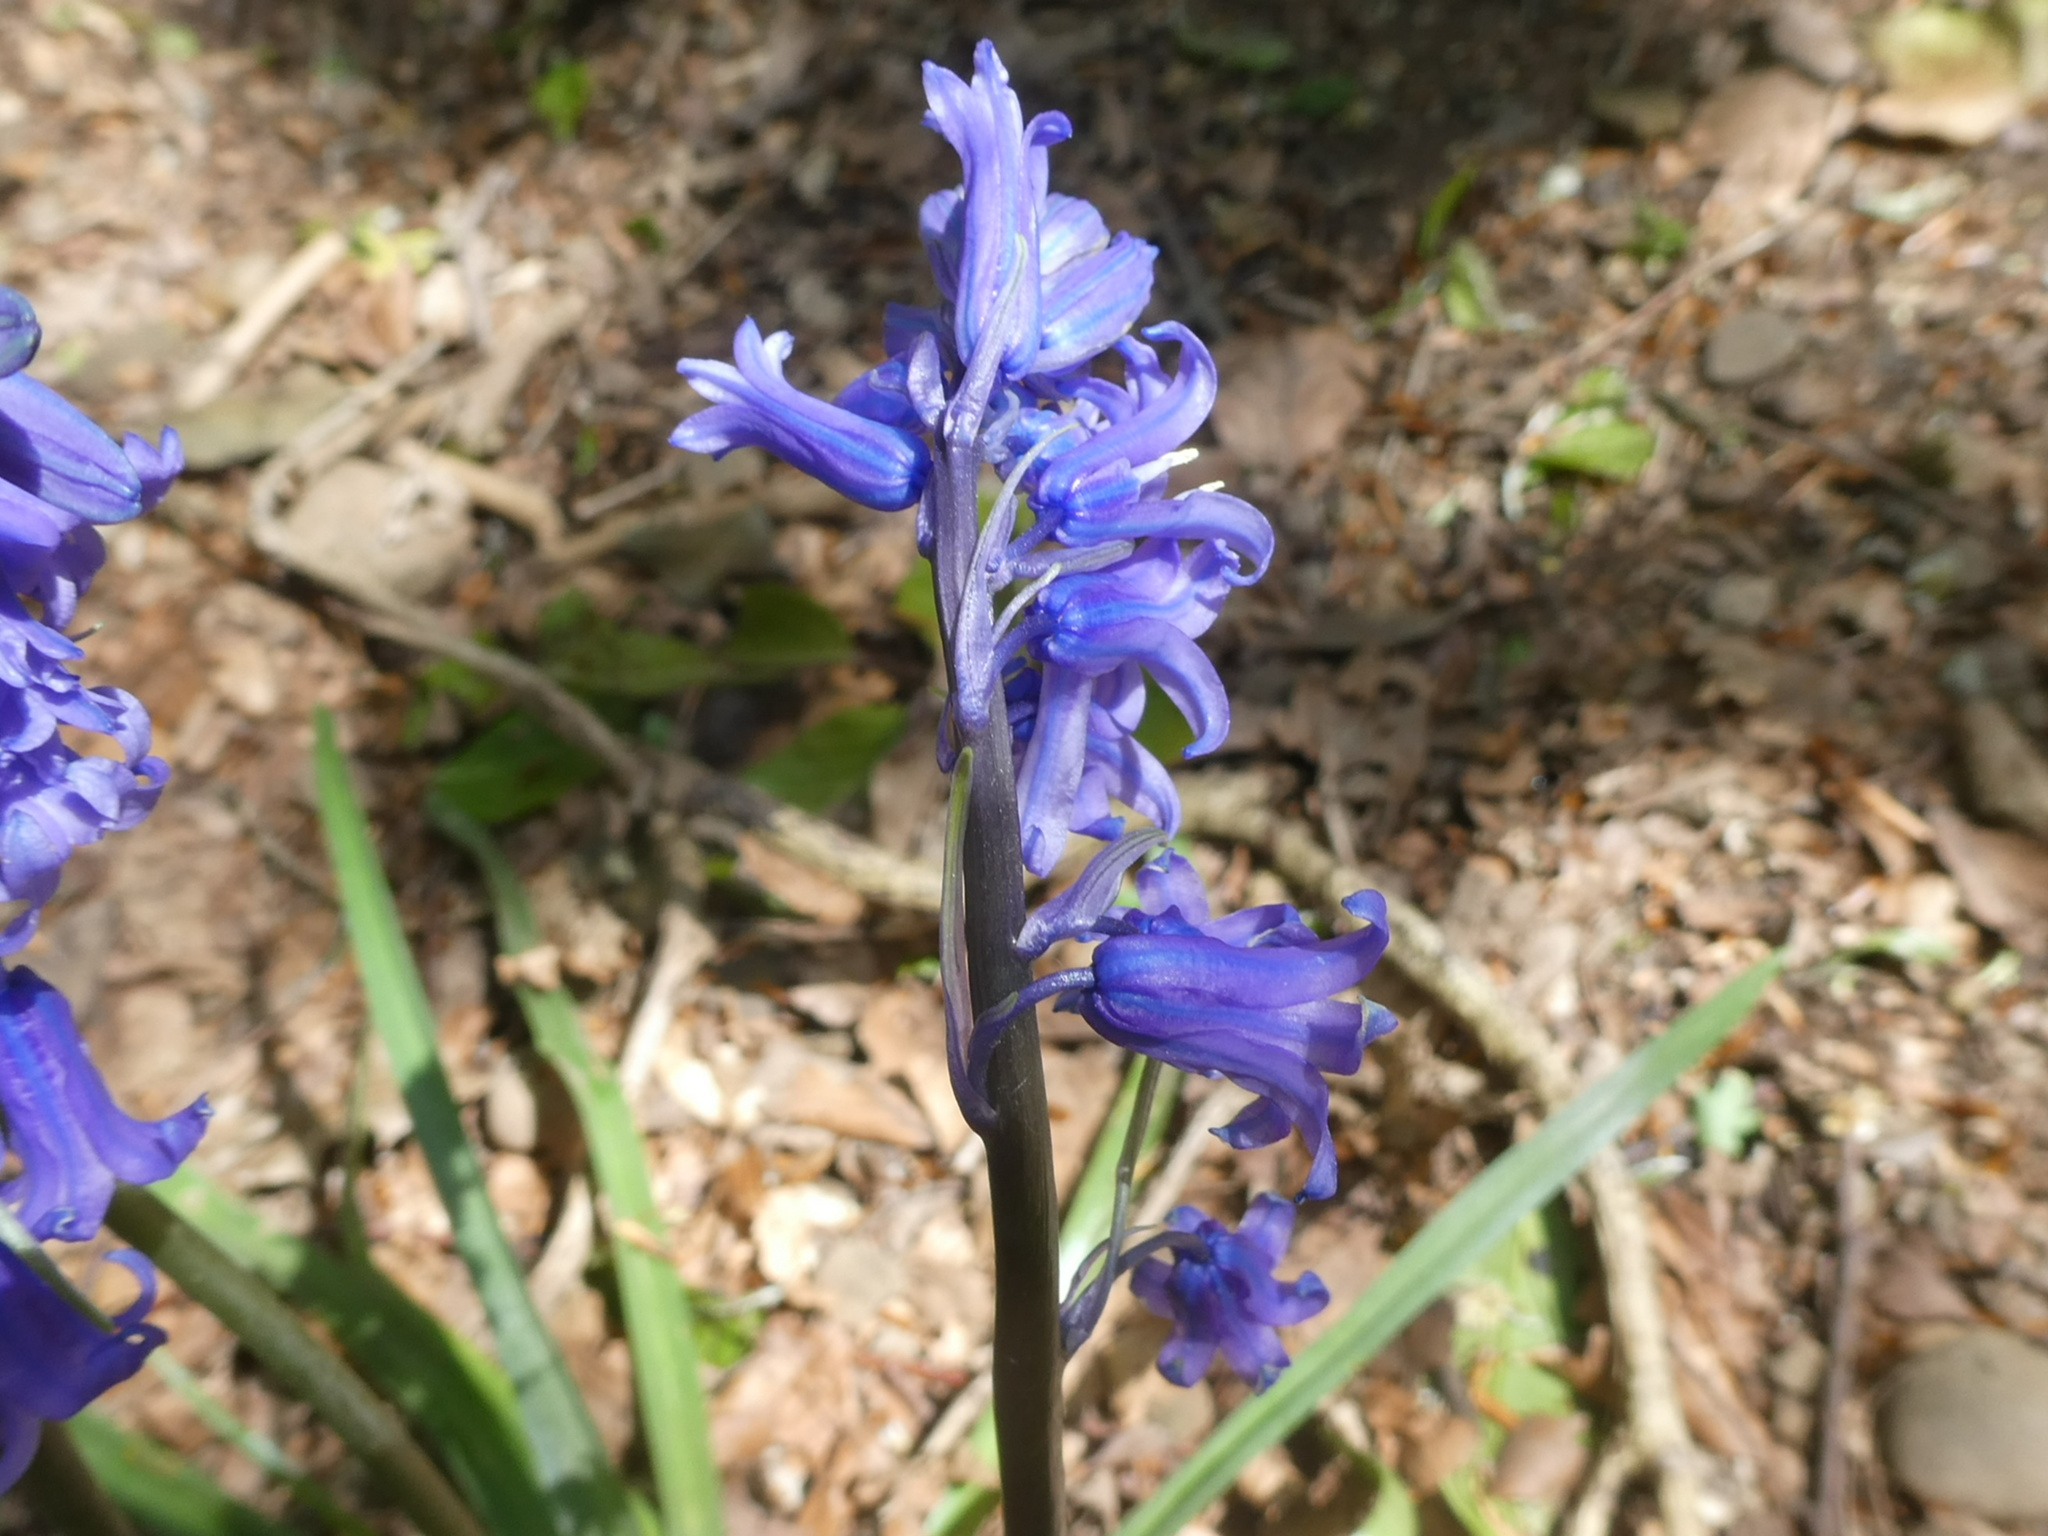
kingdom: Plantae
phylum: Tracheophyta
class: Liliopsida
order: Asparagales
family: Asparagaceae
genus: Hyacinthoides
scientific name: Hyacinthoides non-scripta
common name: Bluebell
